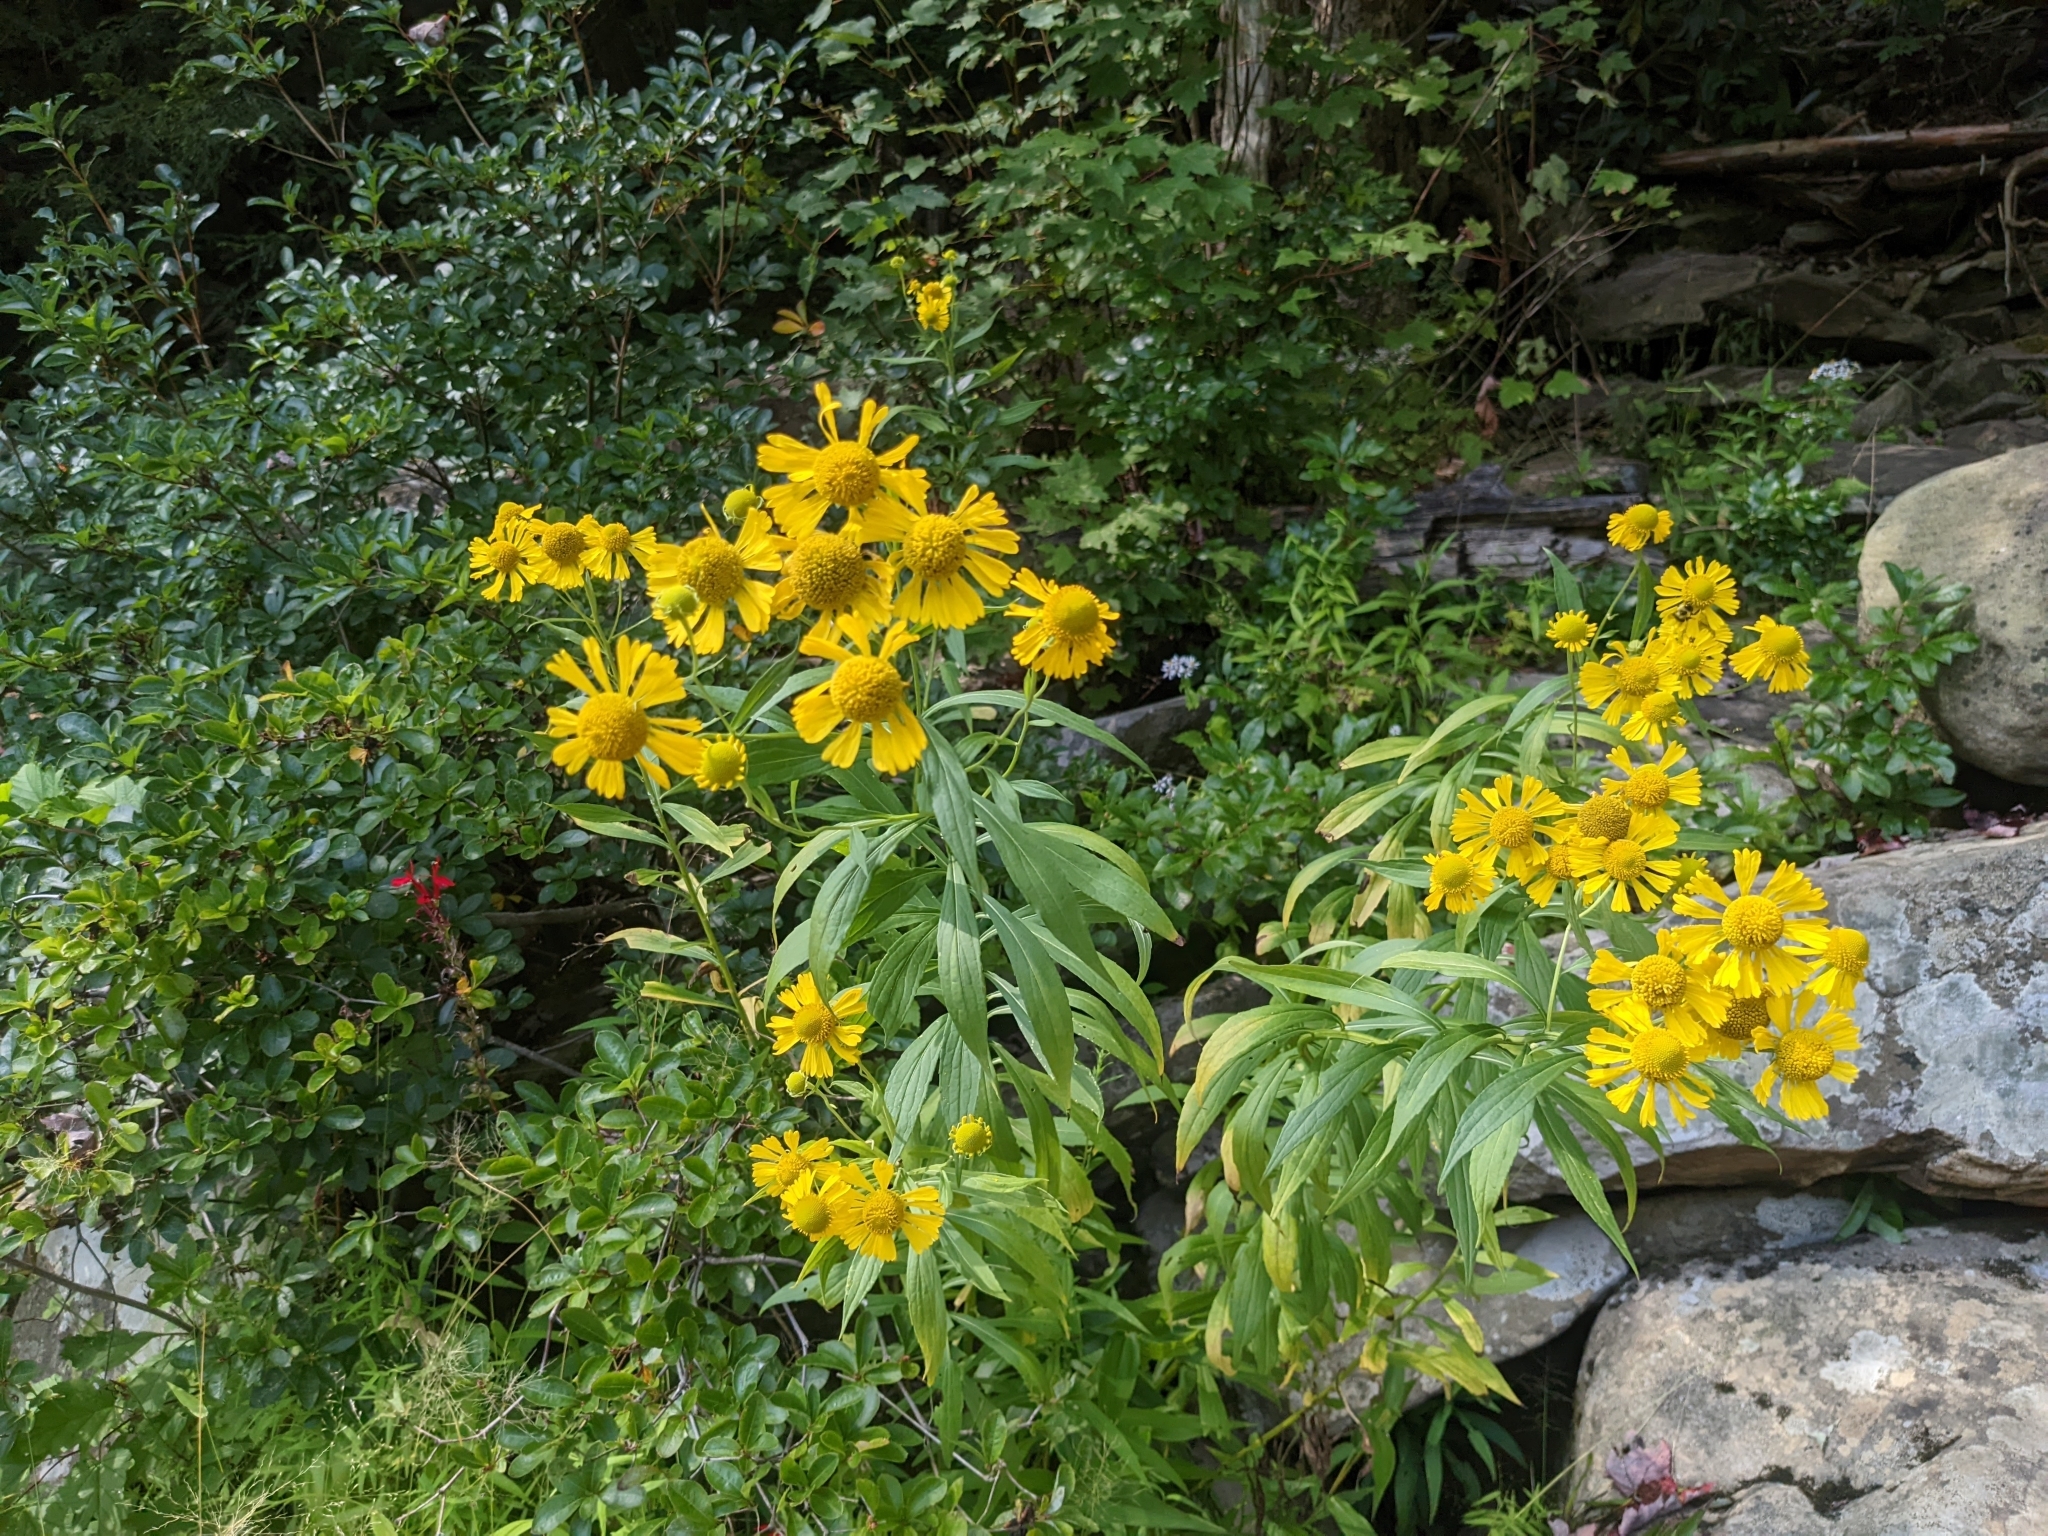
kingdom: Plantae
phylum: Tracheophyta
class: Magnoliopsida
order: Asterales
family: Asteraceae
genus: Helenium
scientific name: Helenium autumnale
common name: Sneezeweed
